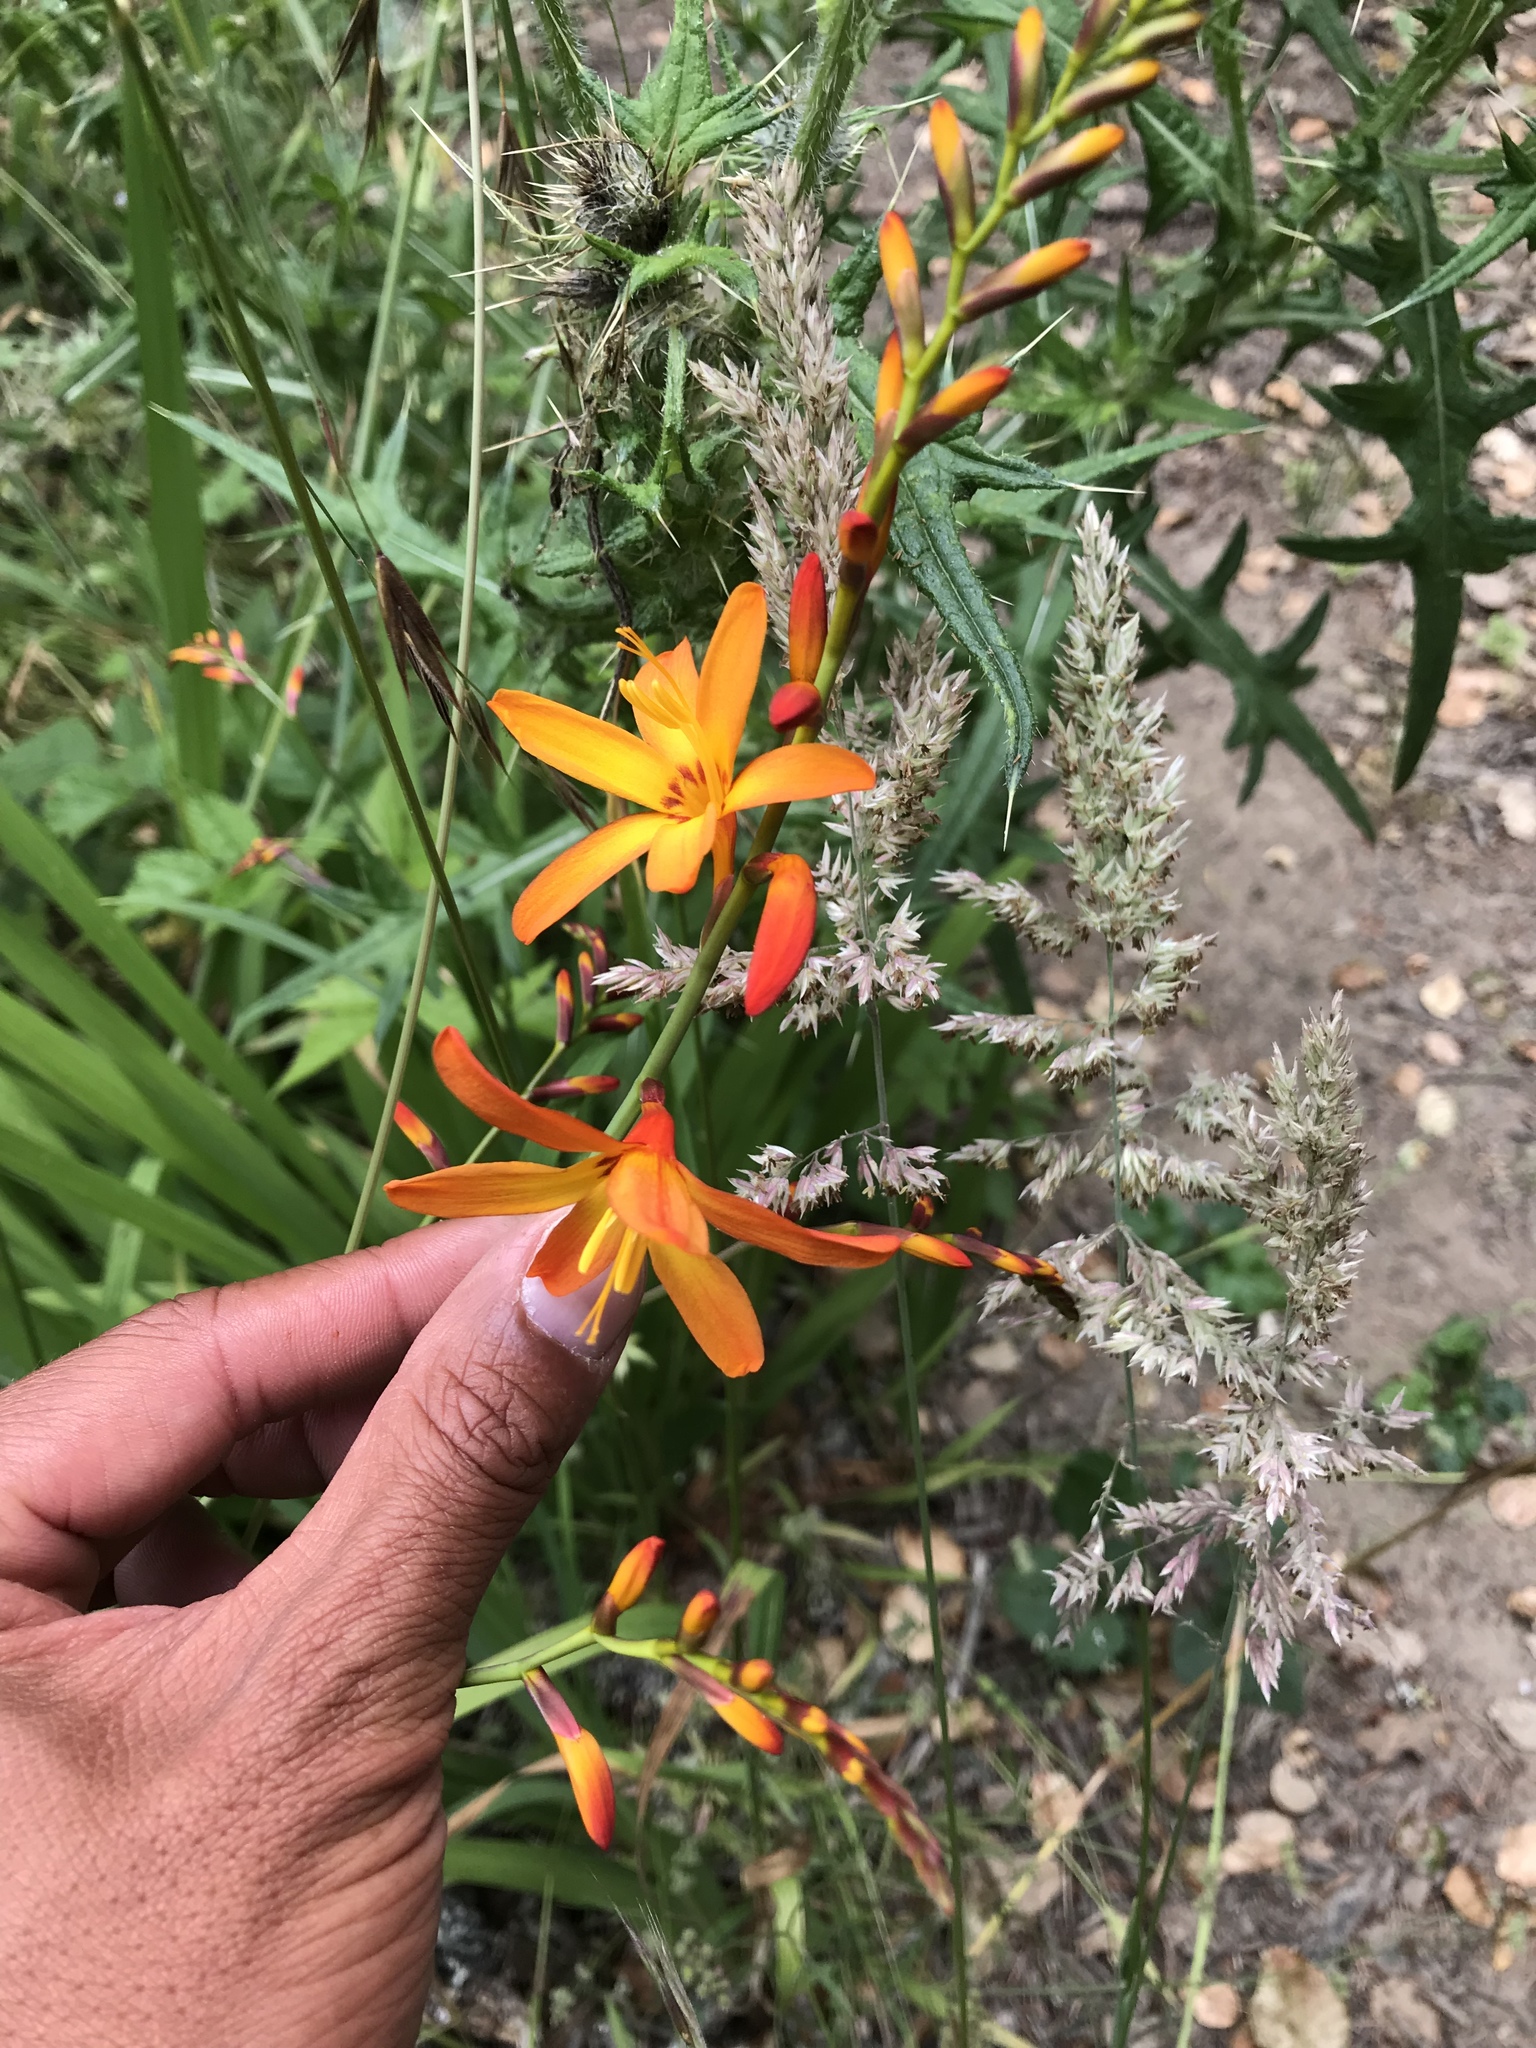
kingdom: Plantae
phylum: Tracheophyta
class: Liliopsida
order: Asparagales
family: Iridaceae
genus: Crocosmia
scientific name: Crocosmia crocosmiiflora
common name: Montbretia
